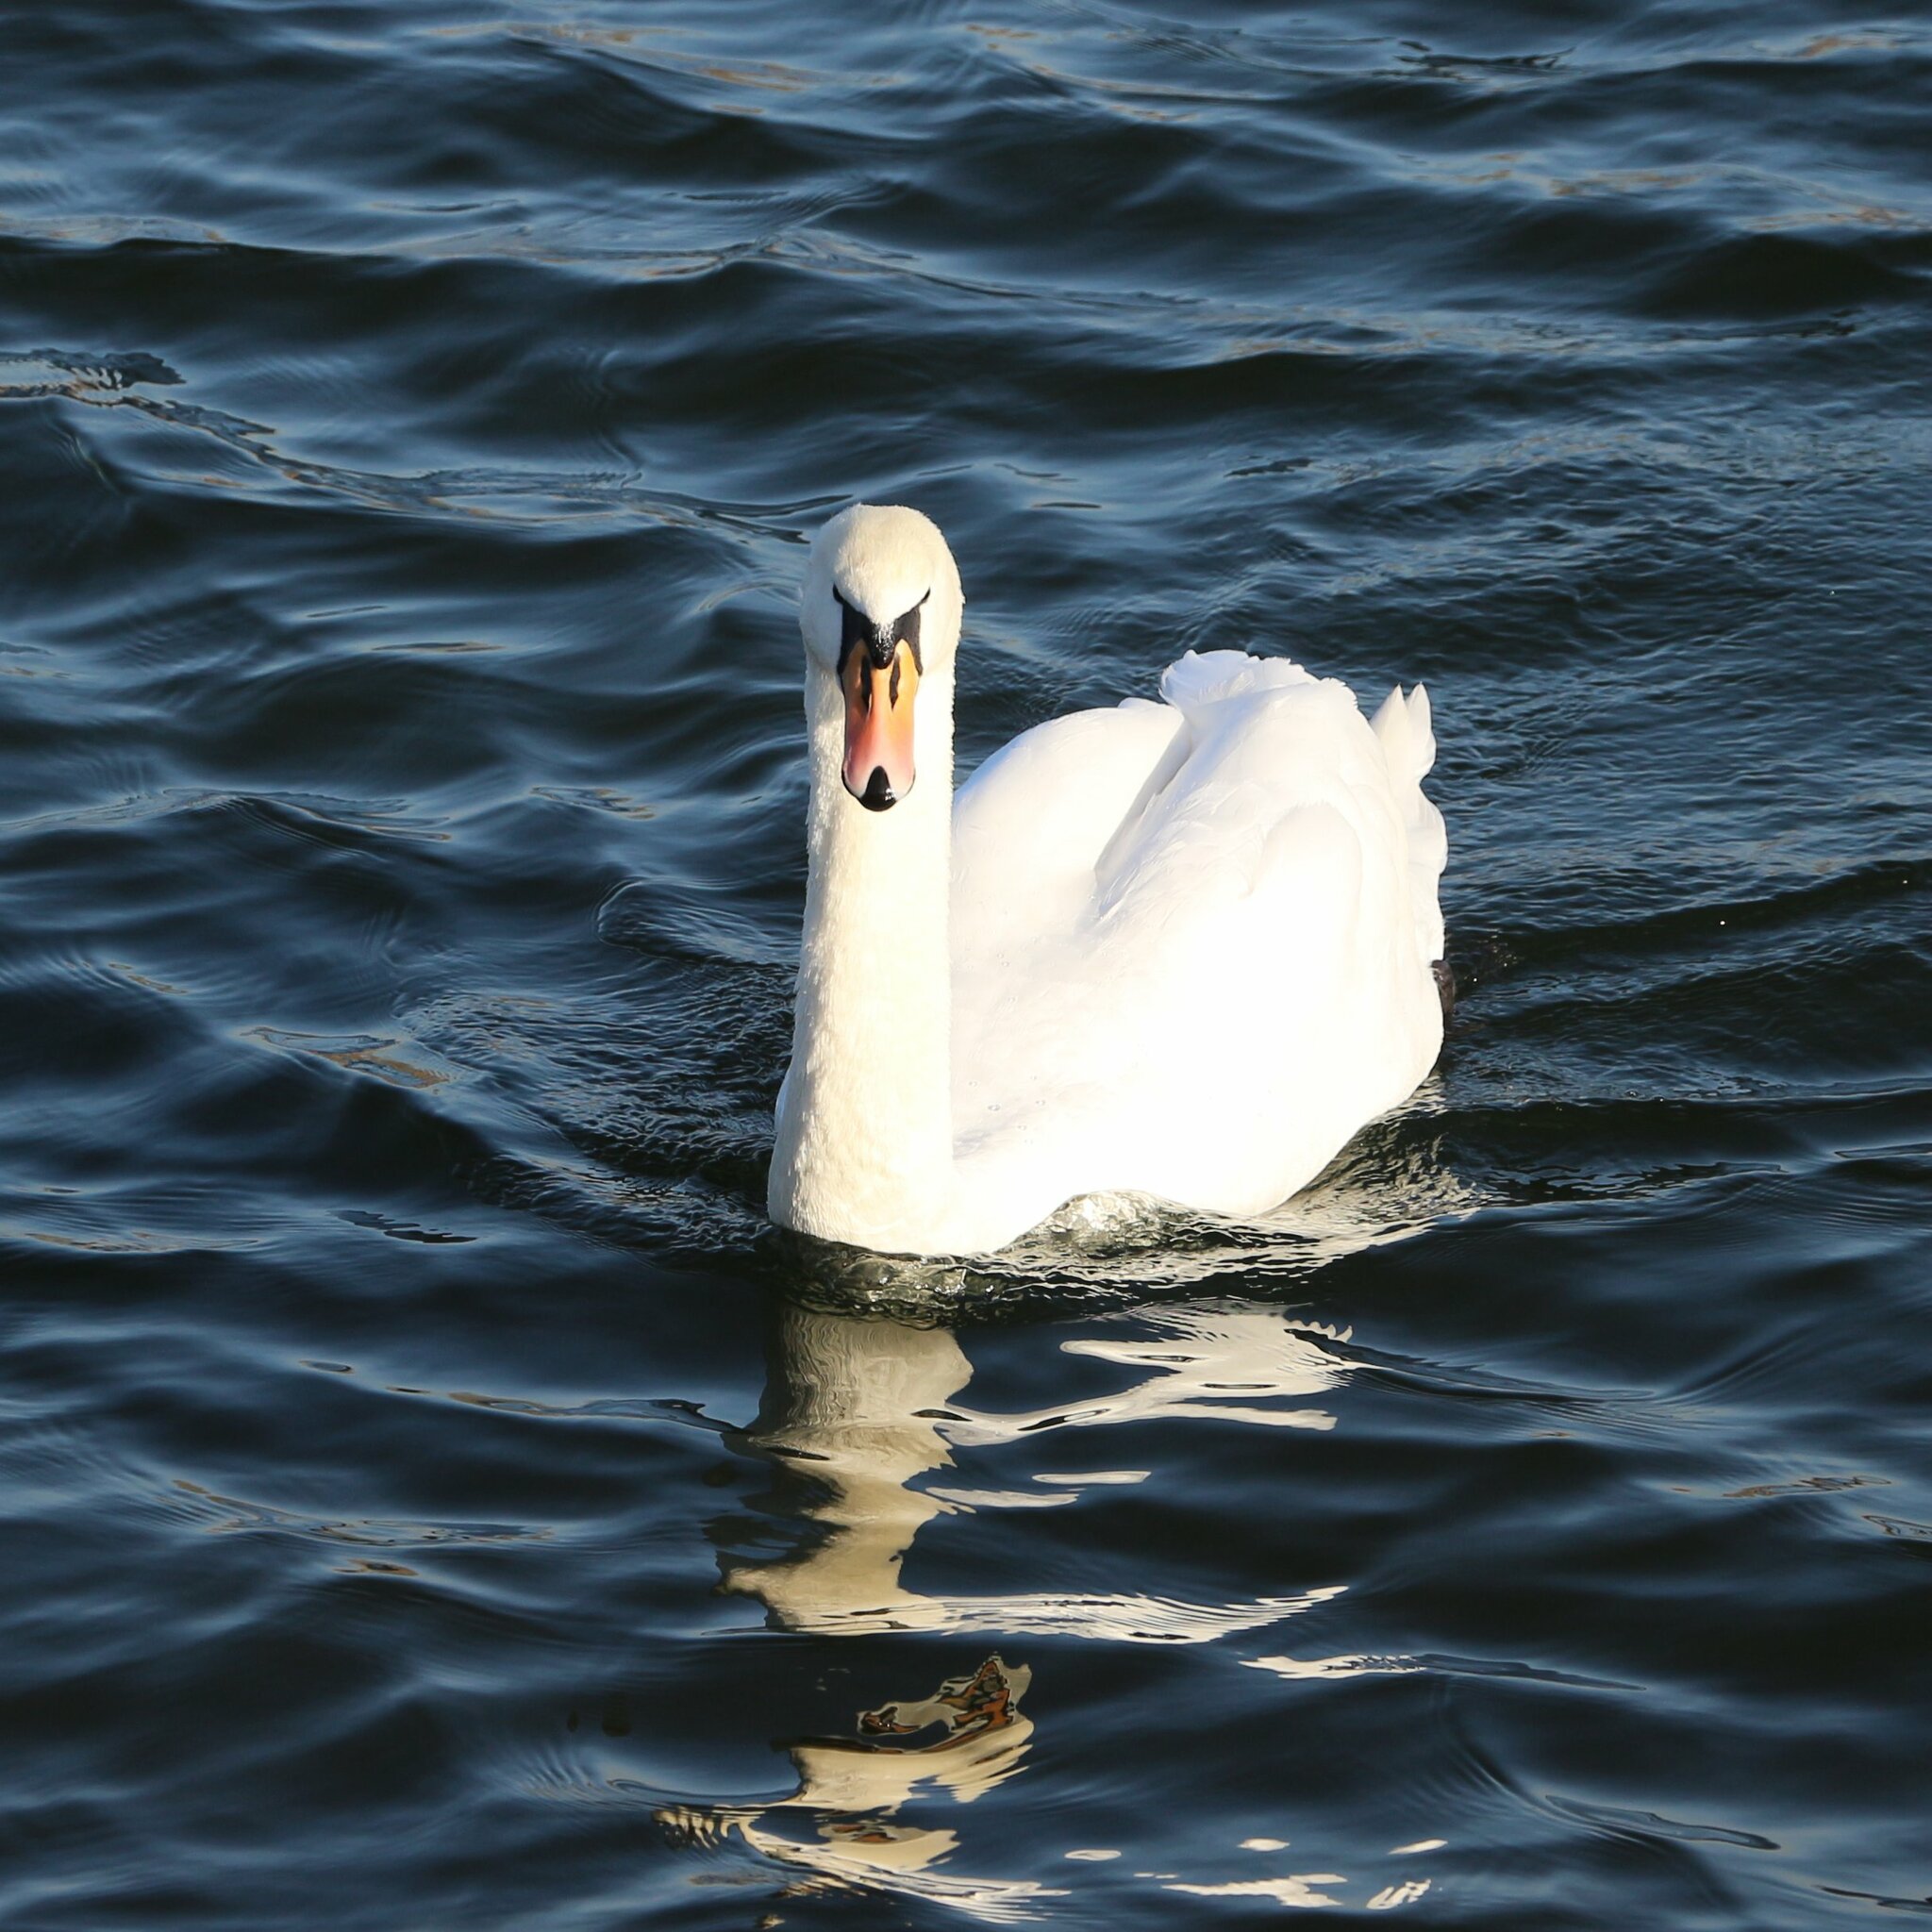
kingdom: Animalia
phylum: Chordata
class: Aves
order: Anseriformes
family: Anatidae
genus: Cygnus
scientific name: Cygnus olor
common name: Mute swan
